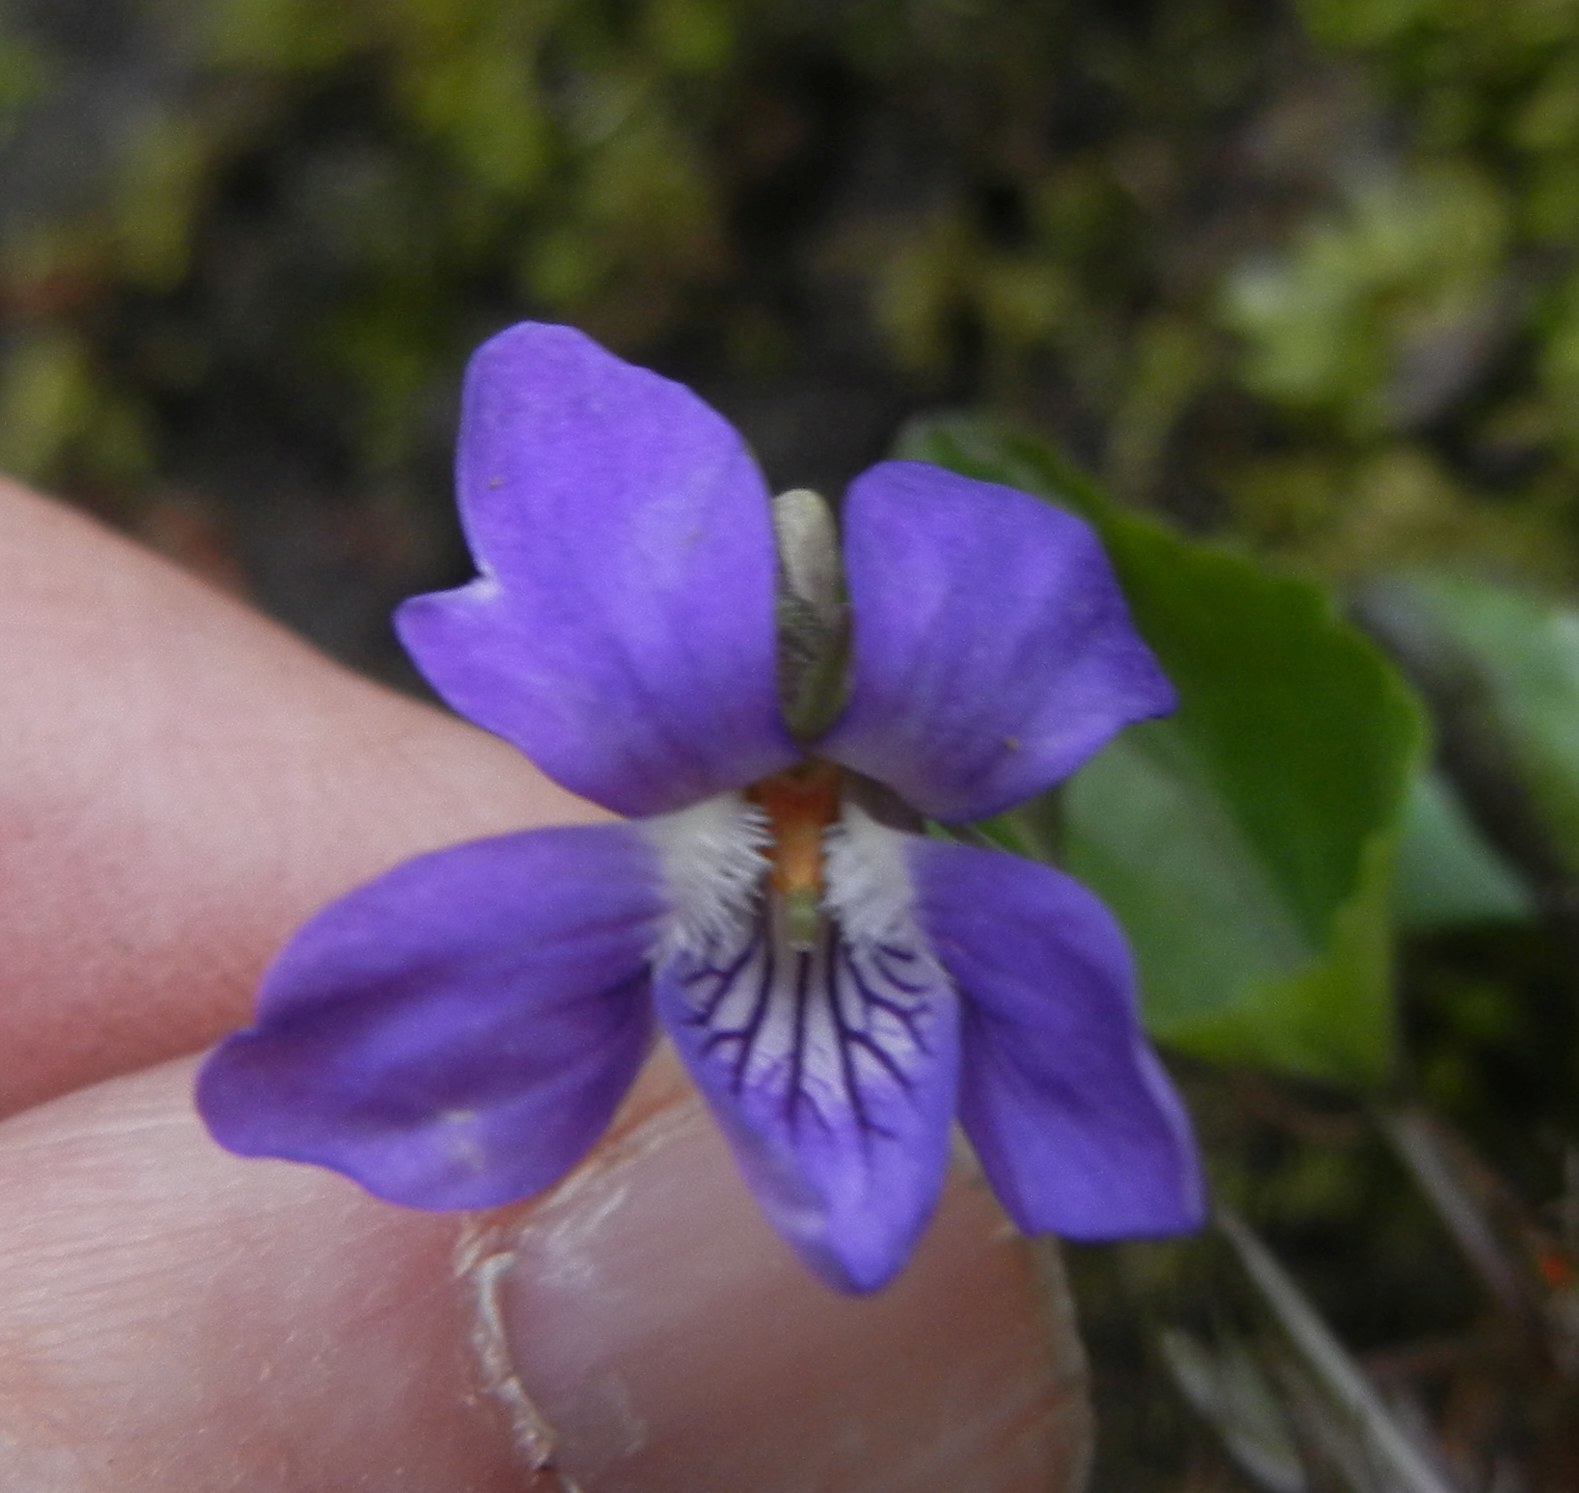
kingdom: Plantae
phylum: Tracheophyta
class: Magnoliopsida
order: Malpighiales
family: Violaceae
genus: Viola
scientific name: Viola riviniana
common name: Common dog-violet
